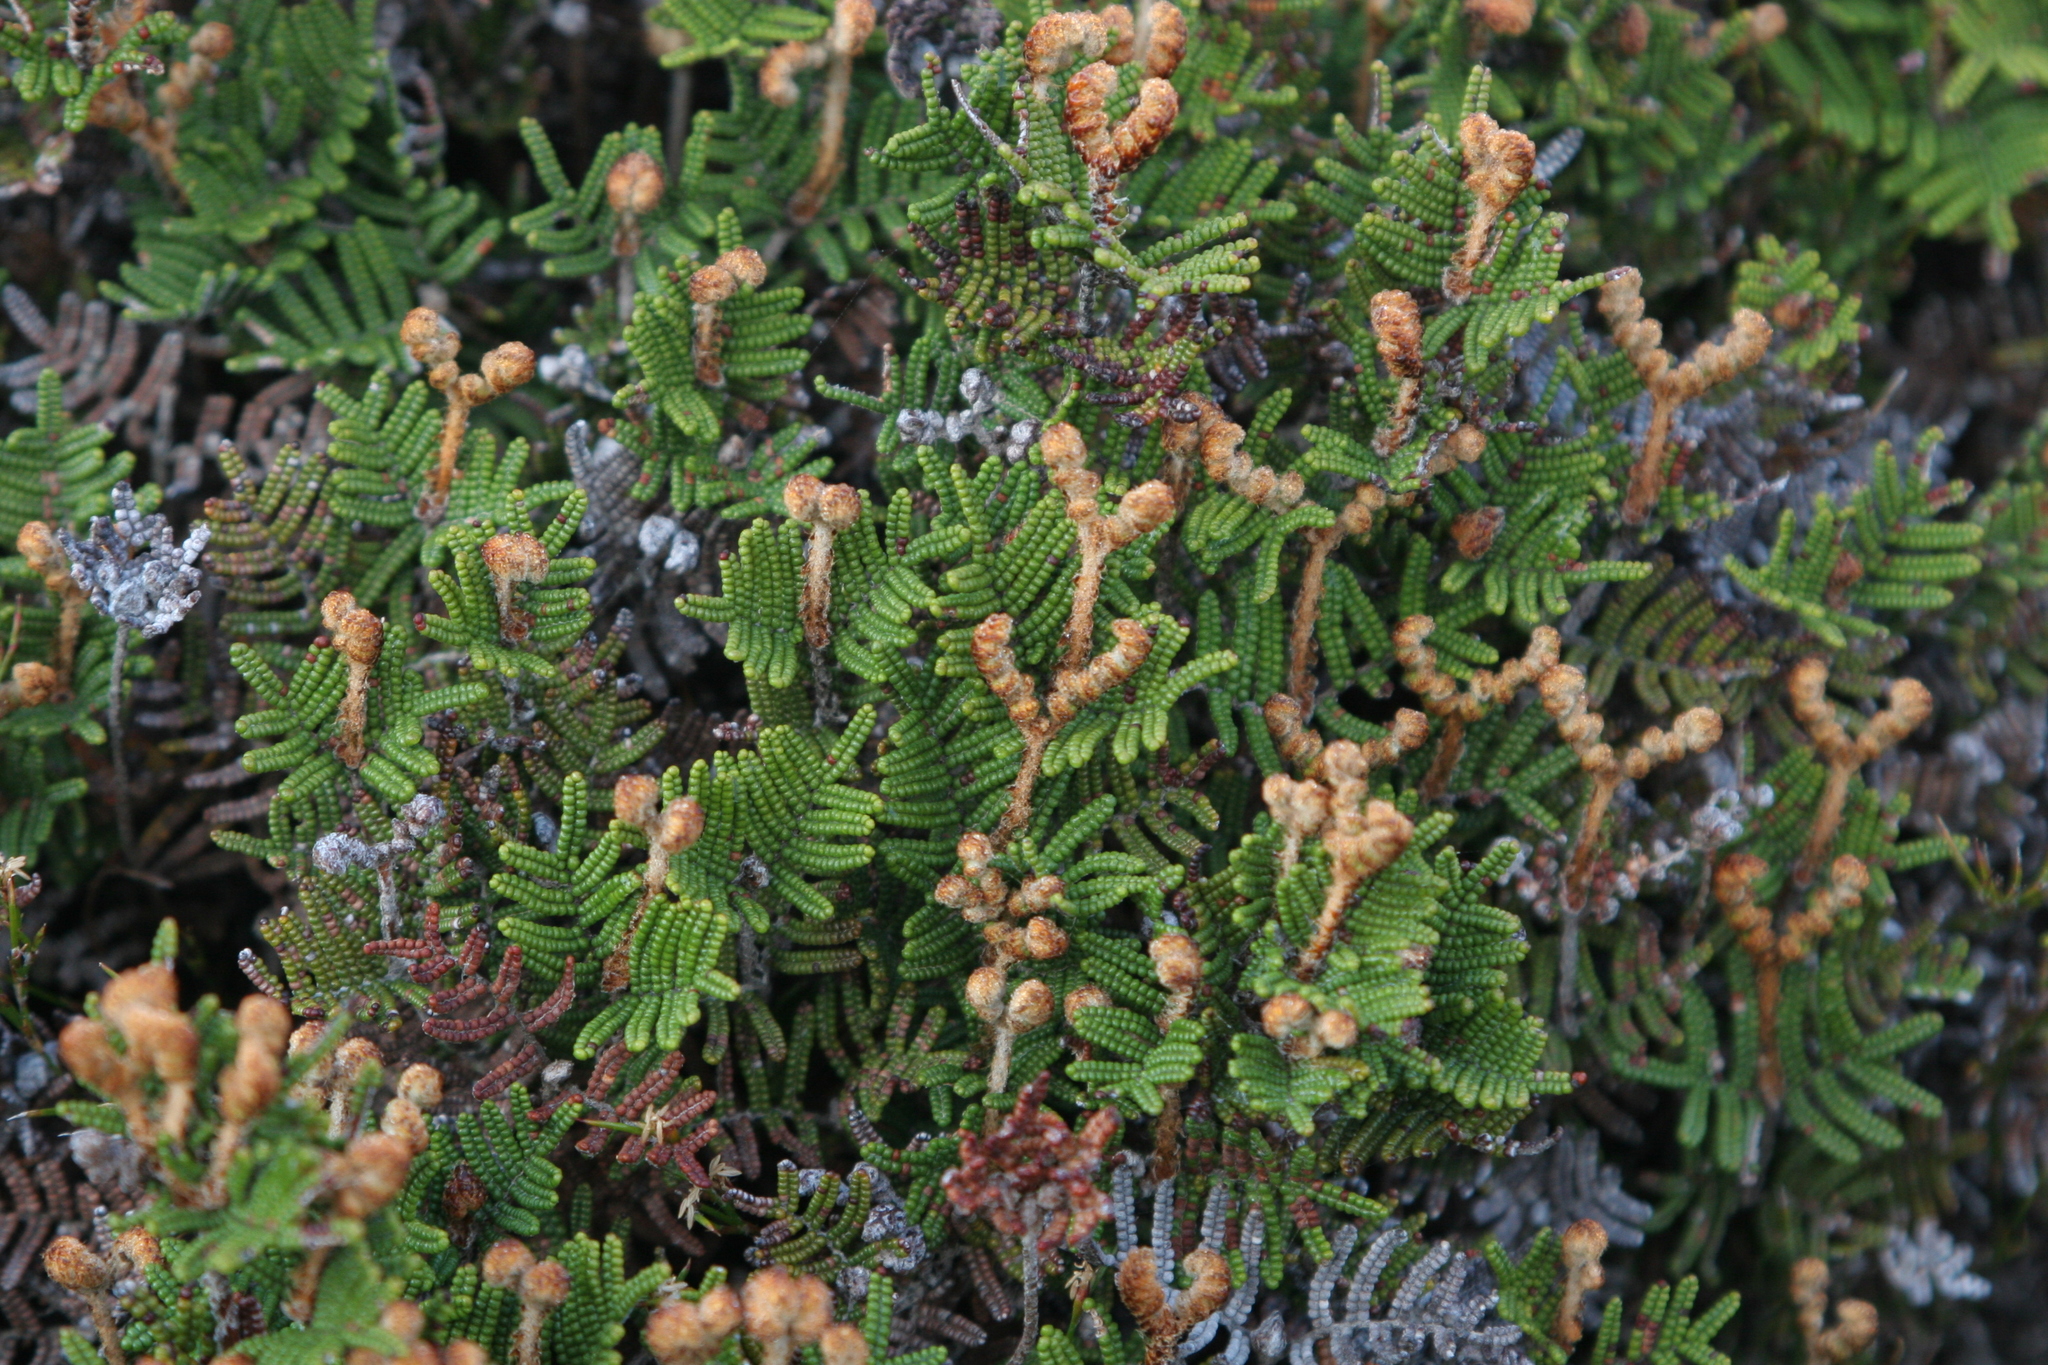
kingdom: Plantae
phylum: Tracheophyta
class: Polypodiopsida
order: Gleicheniales
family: Gleicheniaceae
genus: Gleichenia
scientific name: Gleichenia alpina
